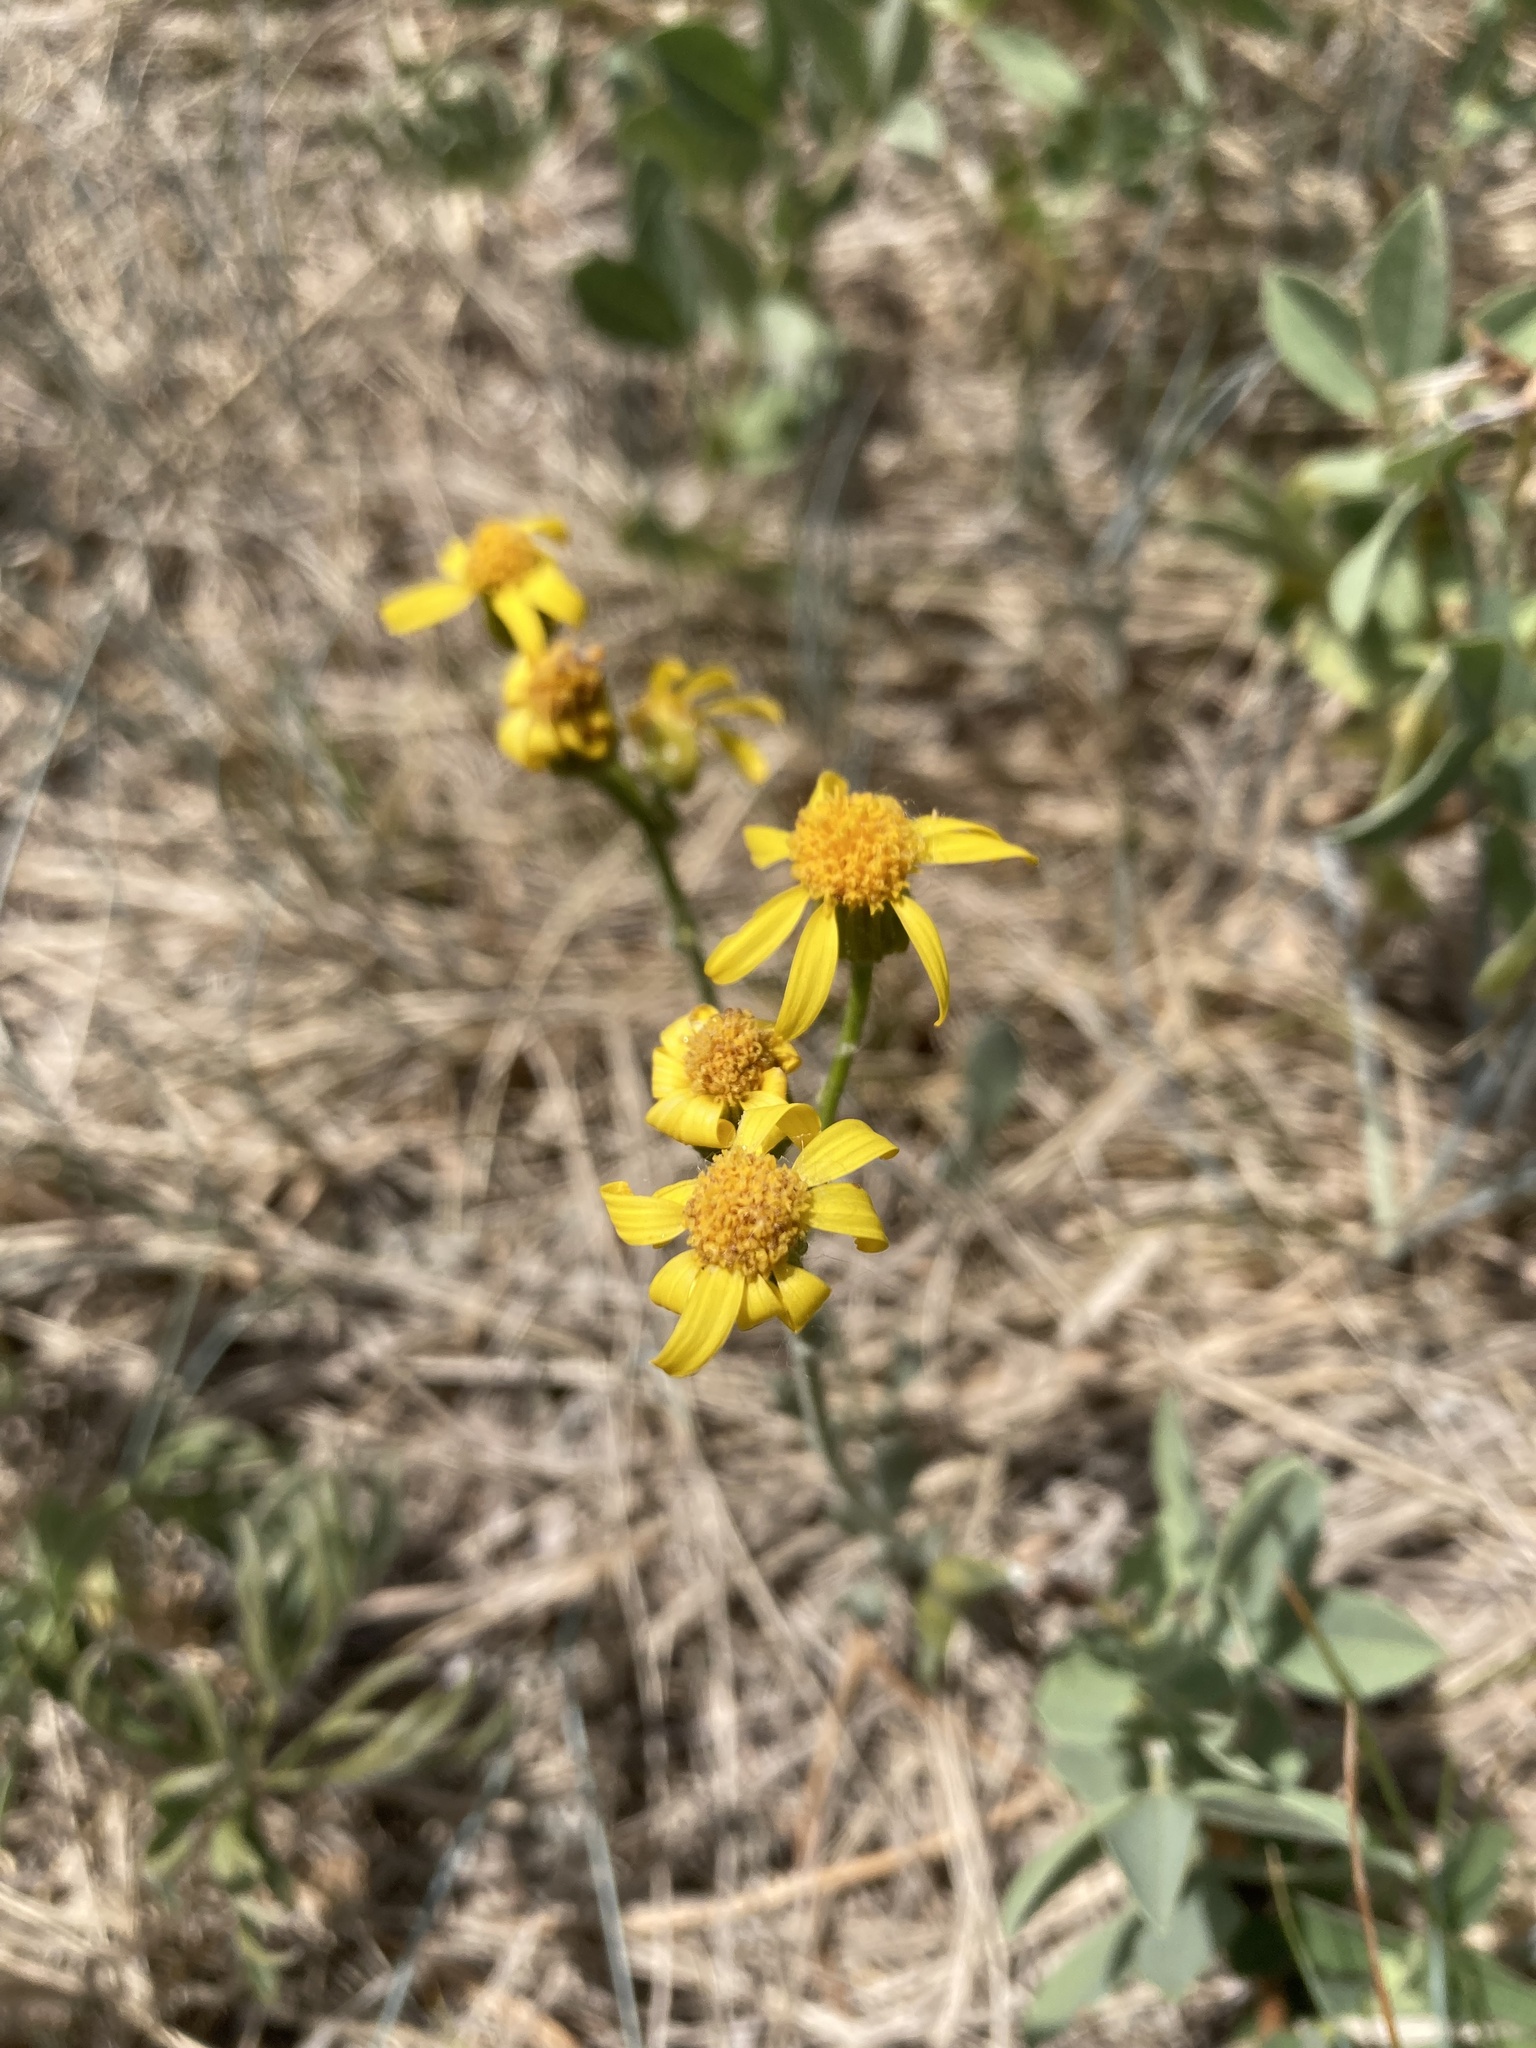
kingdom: Plantae
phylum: Tracheophyta
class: Magnoliopsida
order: Asterales
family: Asteraceae
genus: Packera
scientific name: Packera cana
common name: Woolly groundsel
